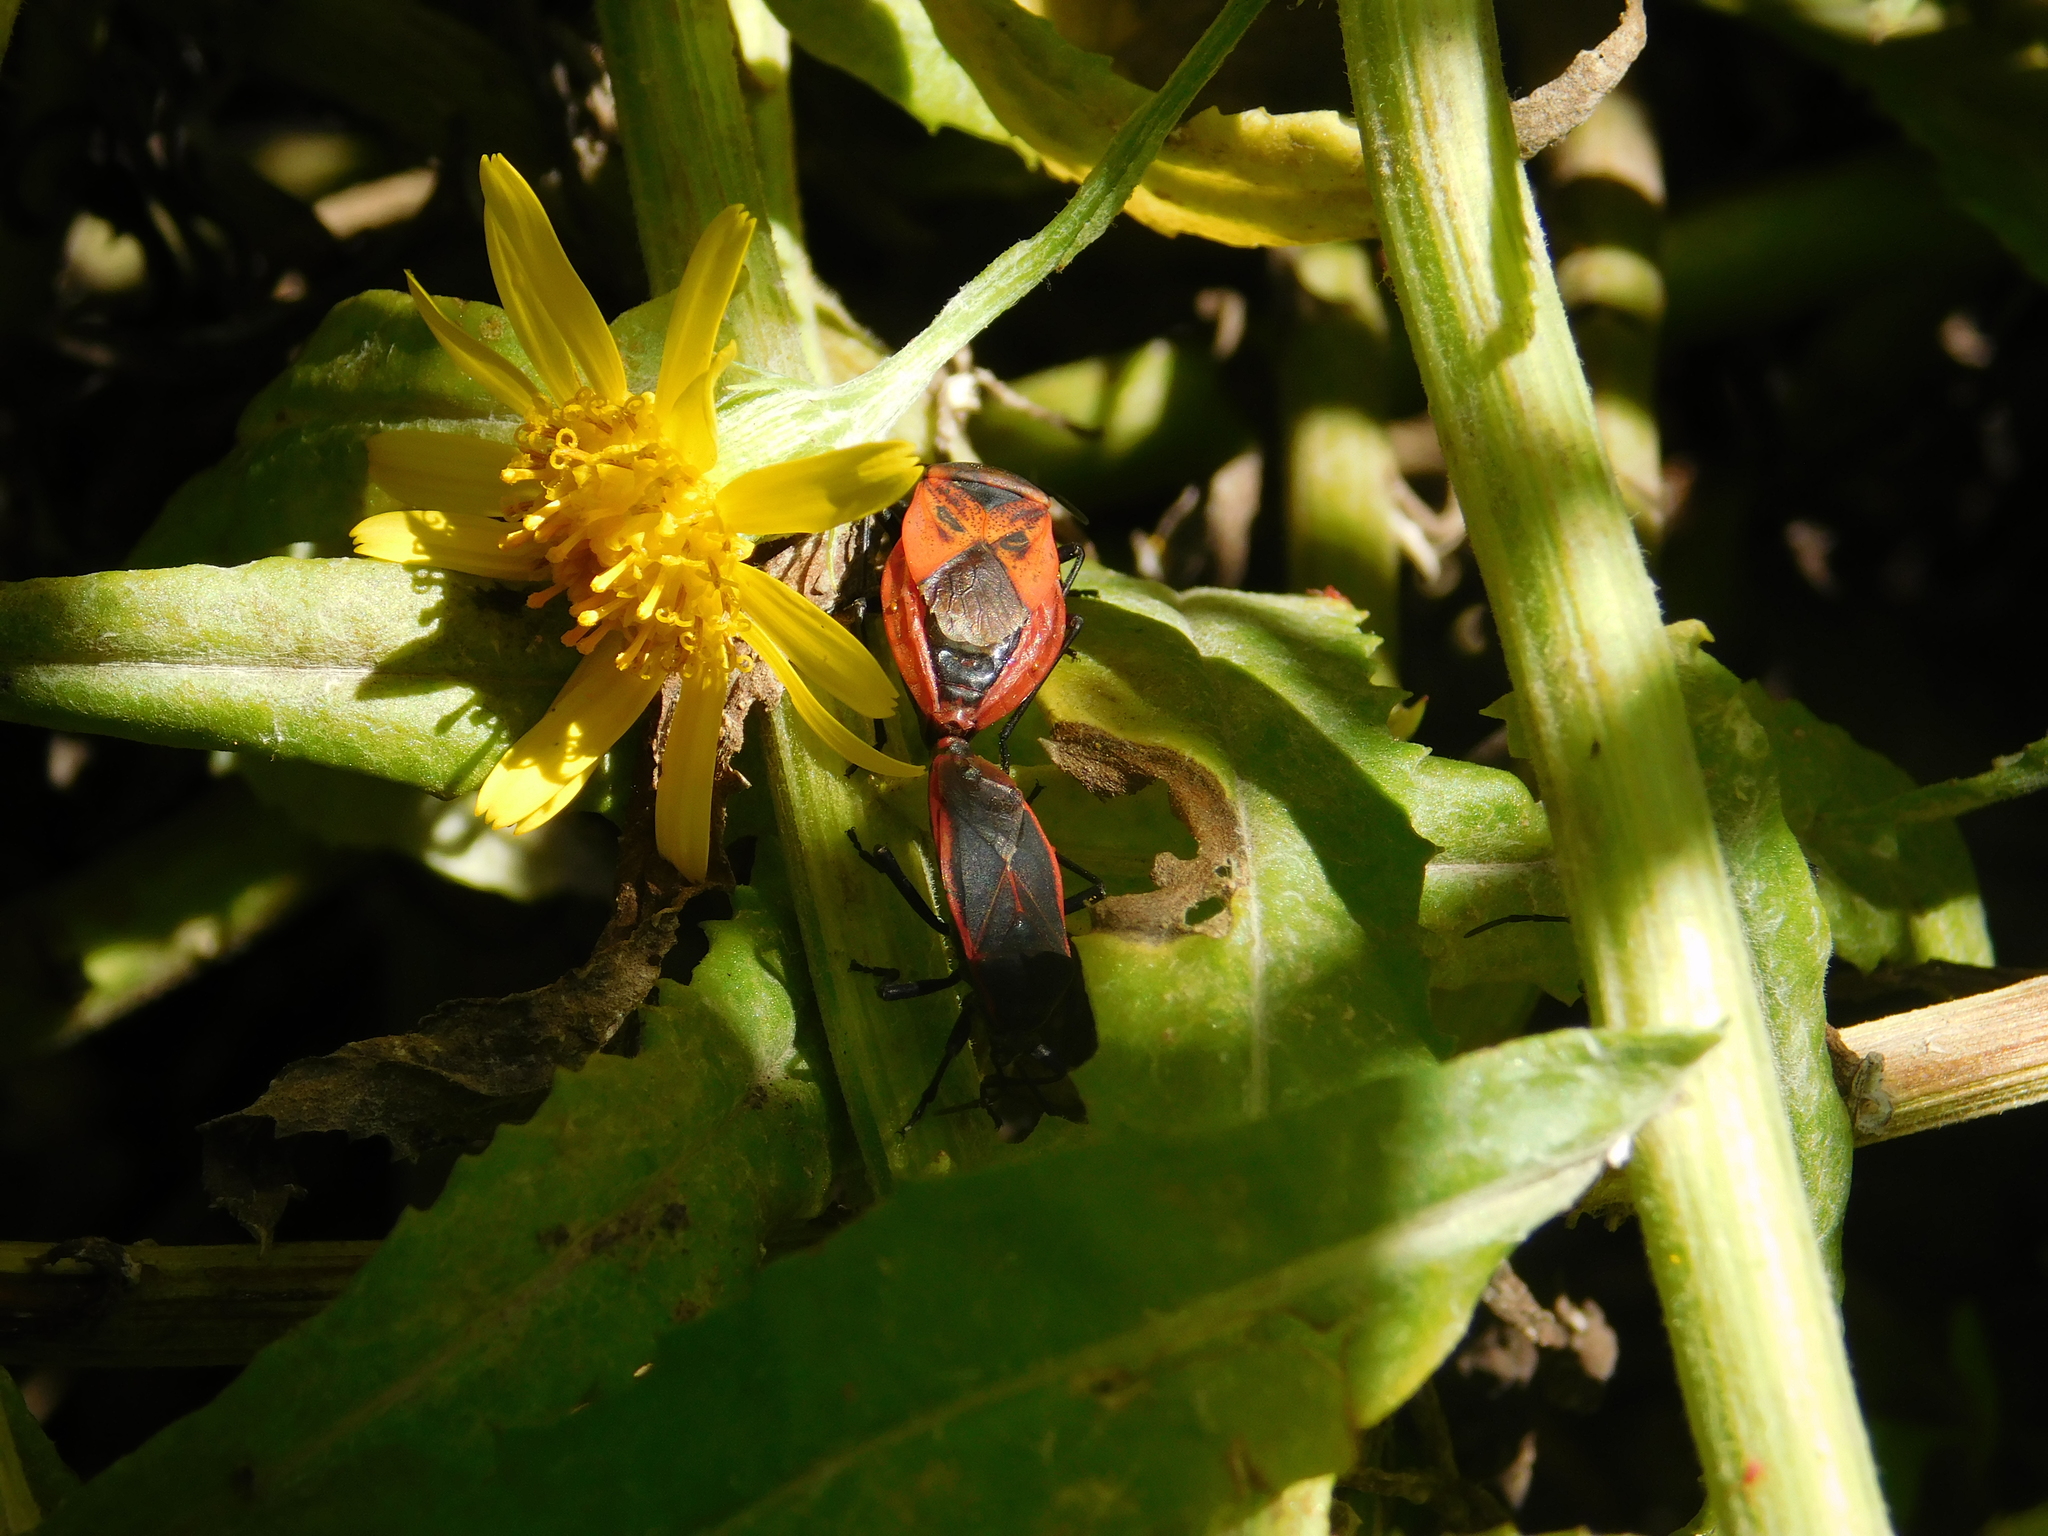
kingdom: Animalia
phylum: Arthropoda
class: Insecta
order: Hemiptera
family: Largidae
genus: Largus
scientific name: Largus rufipennis
